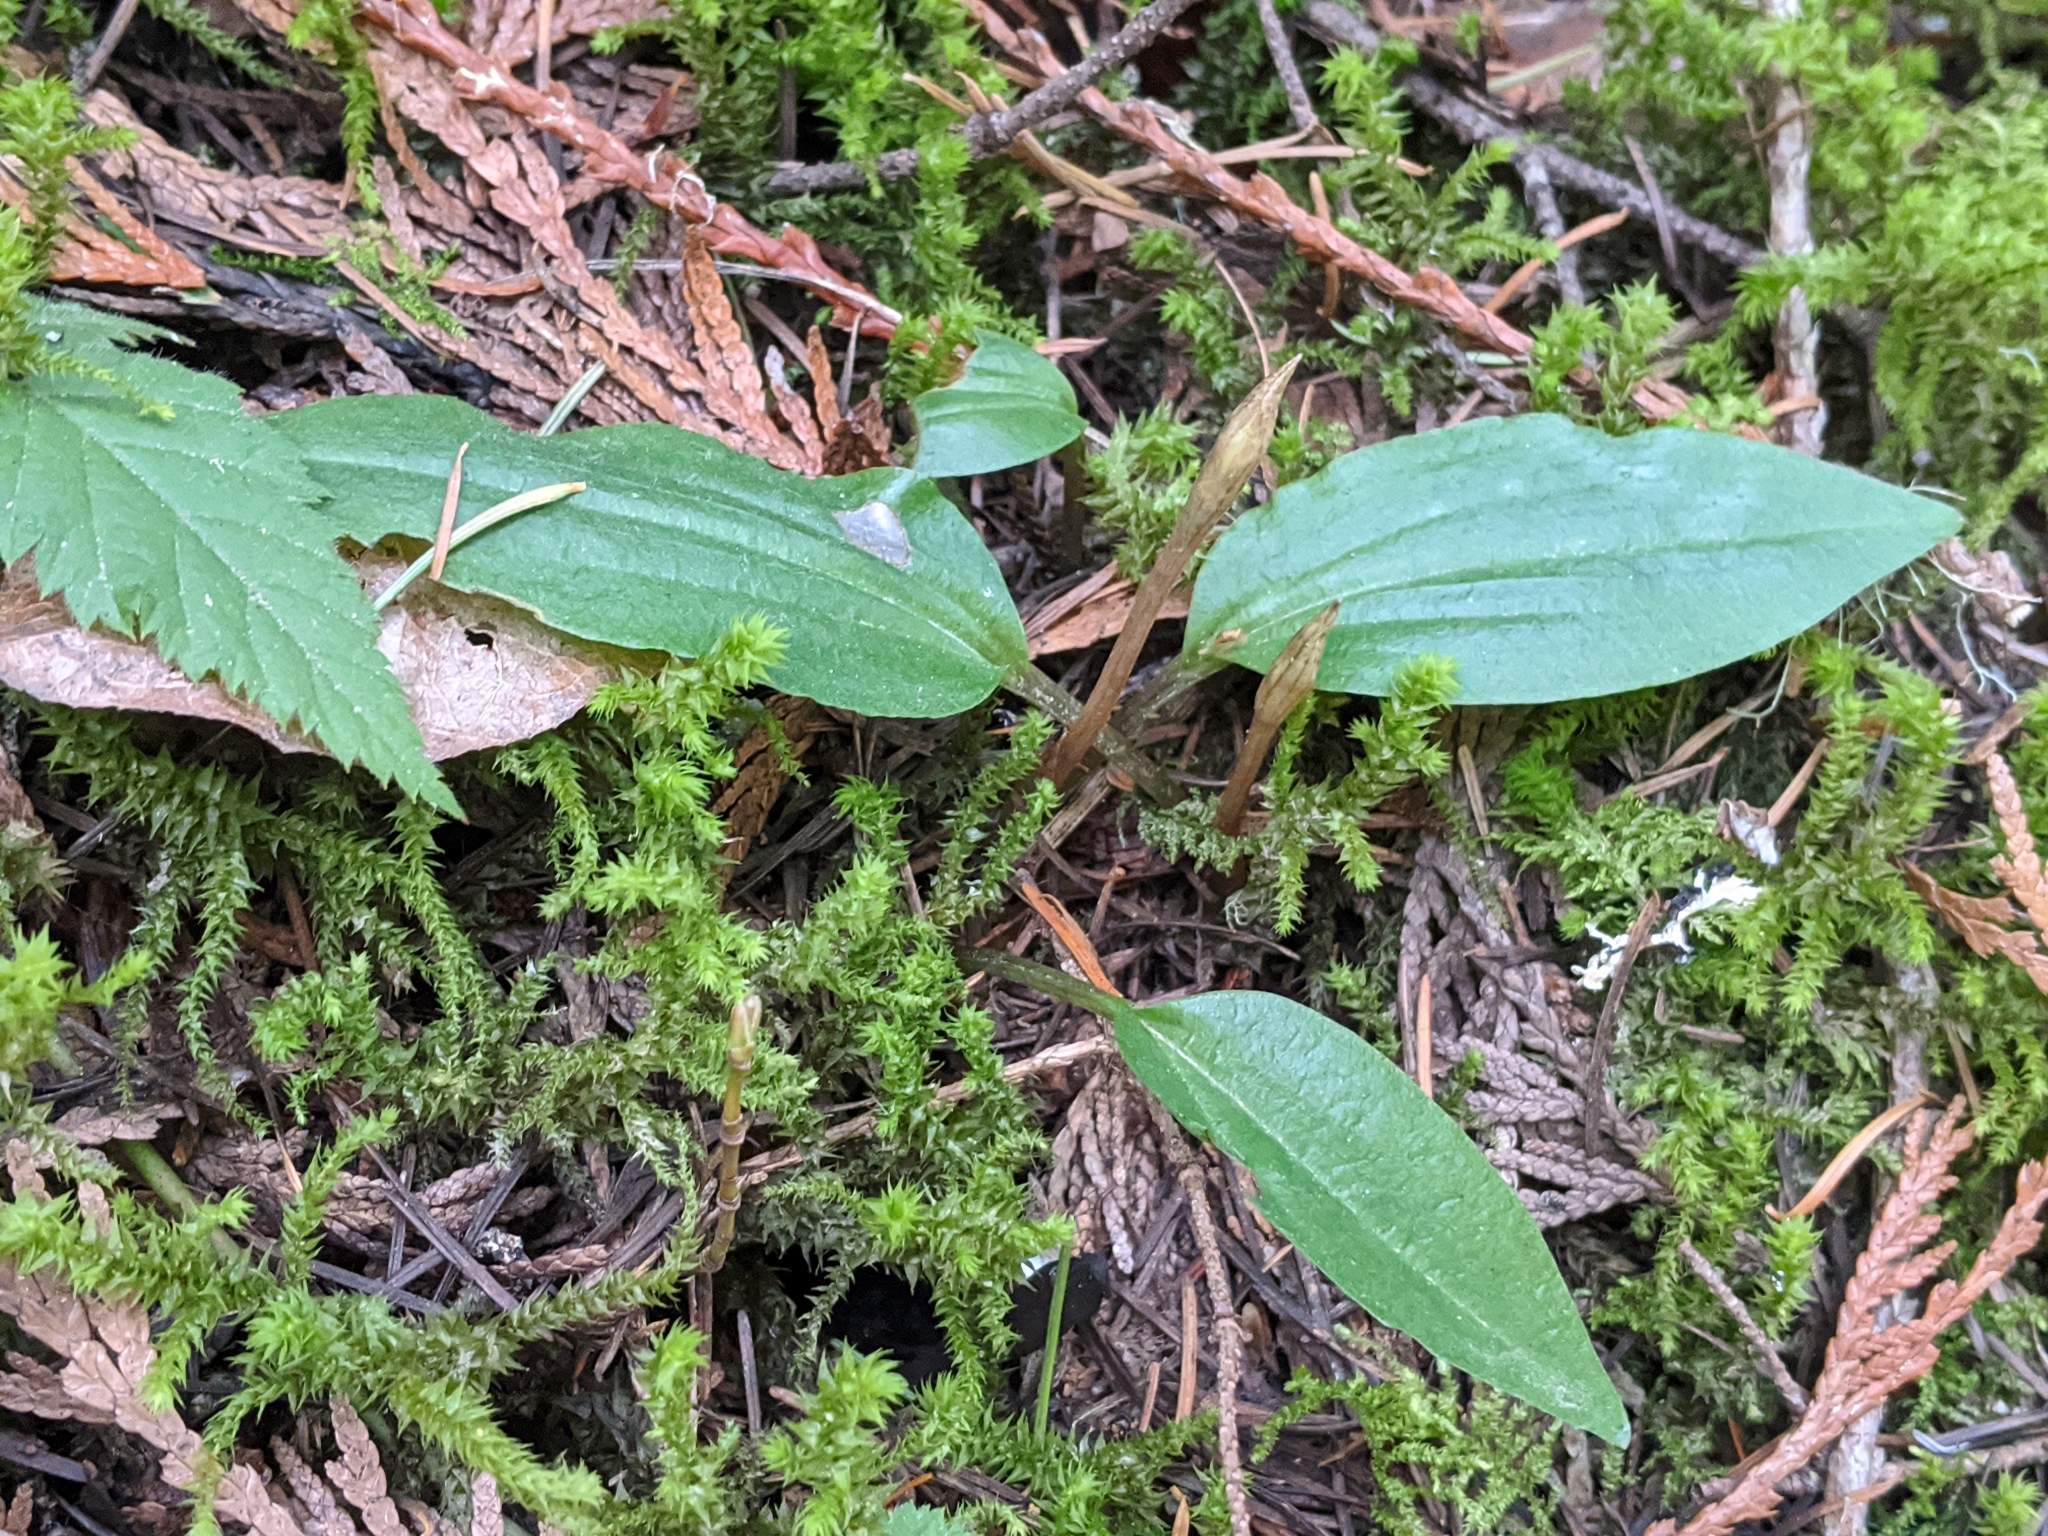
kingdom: Plantae
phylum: Tracheophyta
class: Liliopsida
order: Asparagales
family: Orchidaceae
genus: Calypso
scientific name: Calypso bulbosa
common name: Calypso
